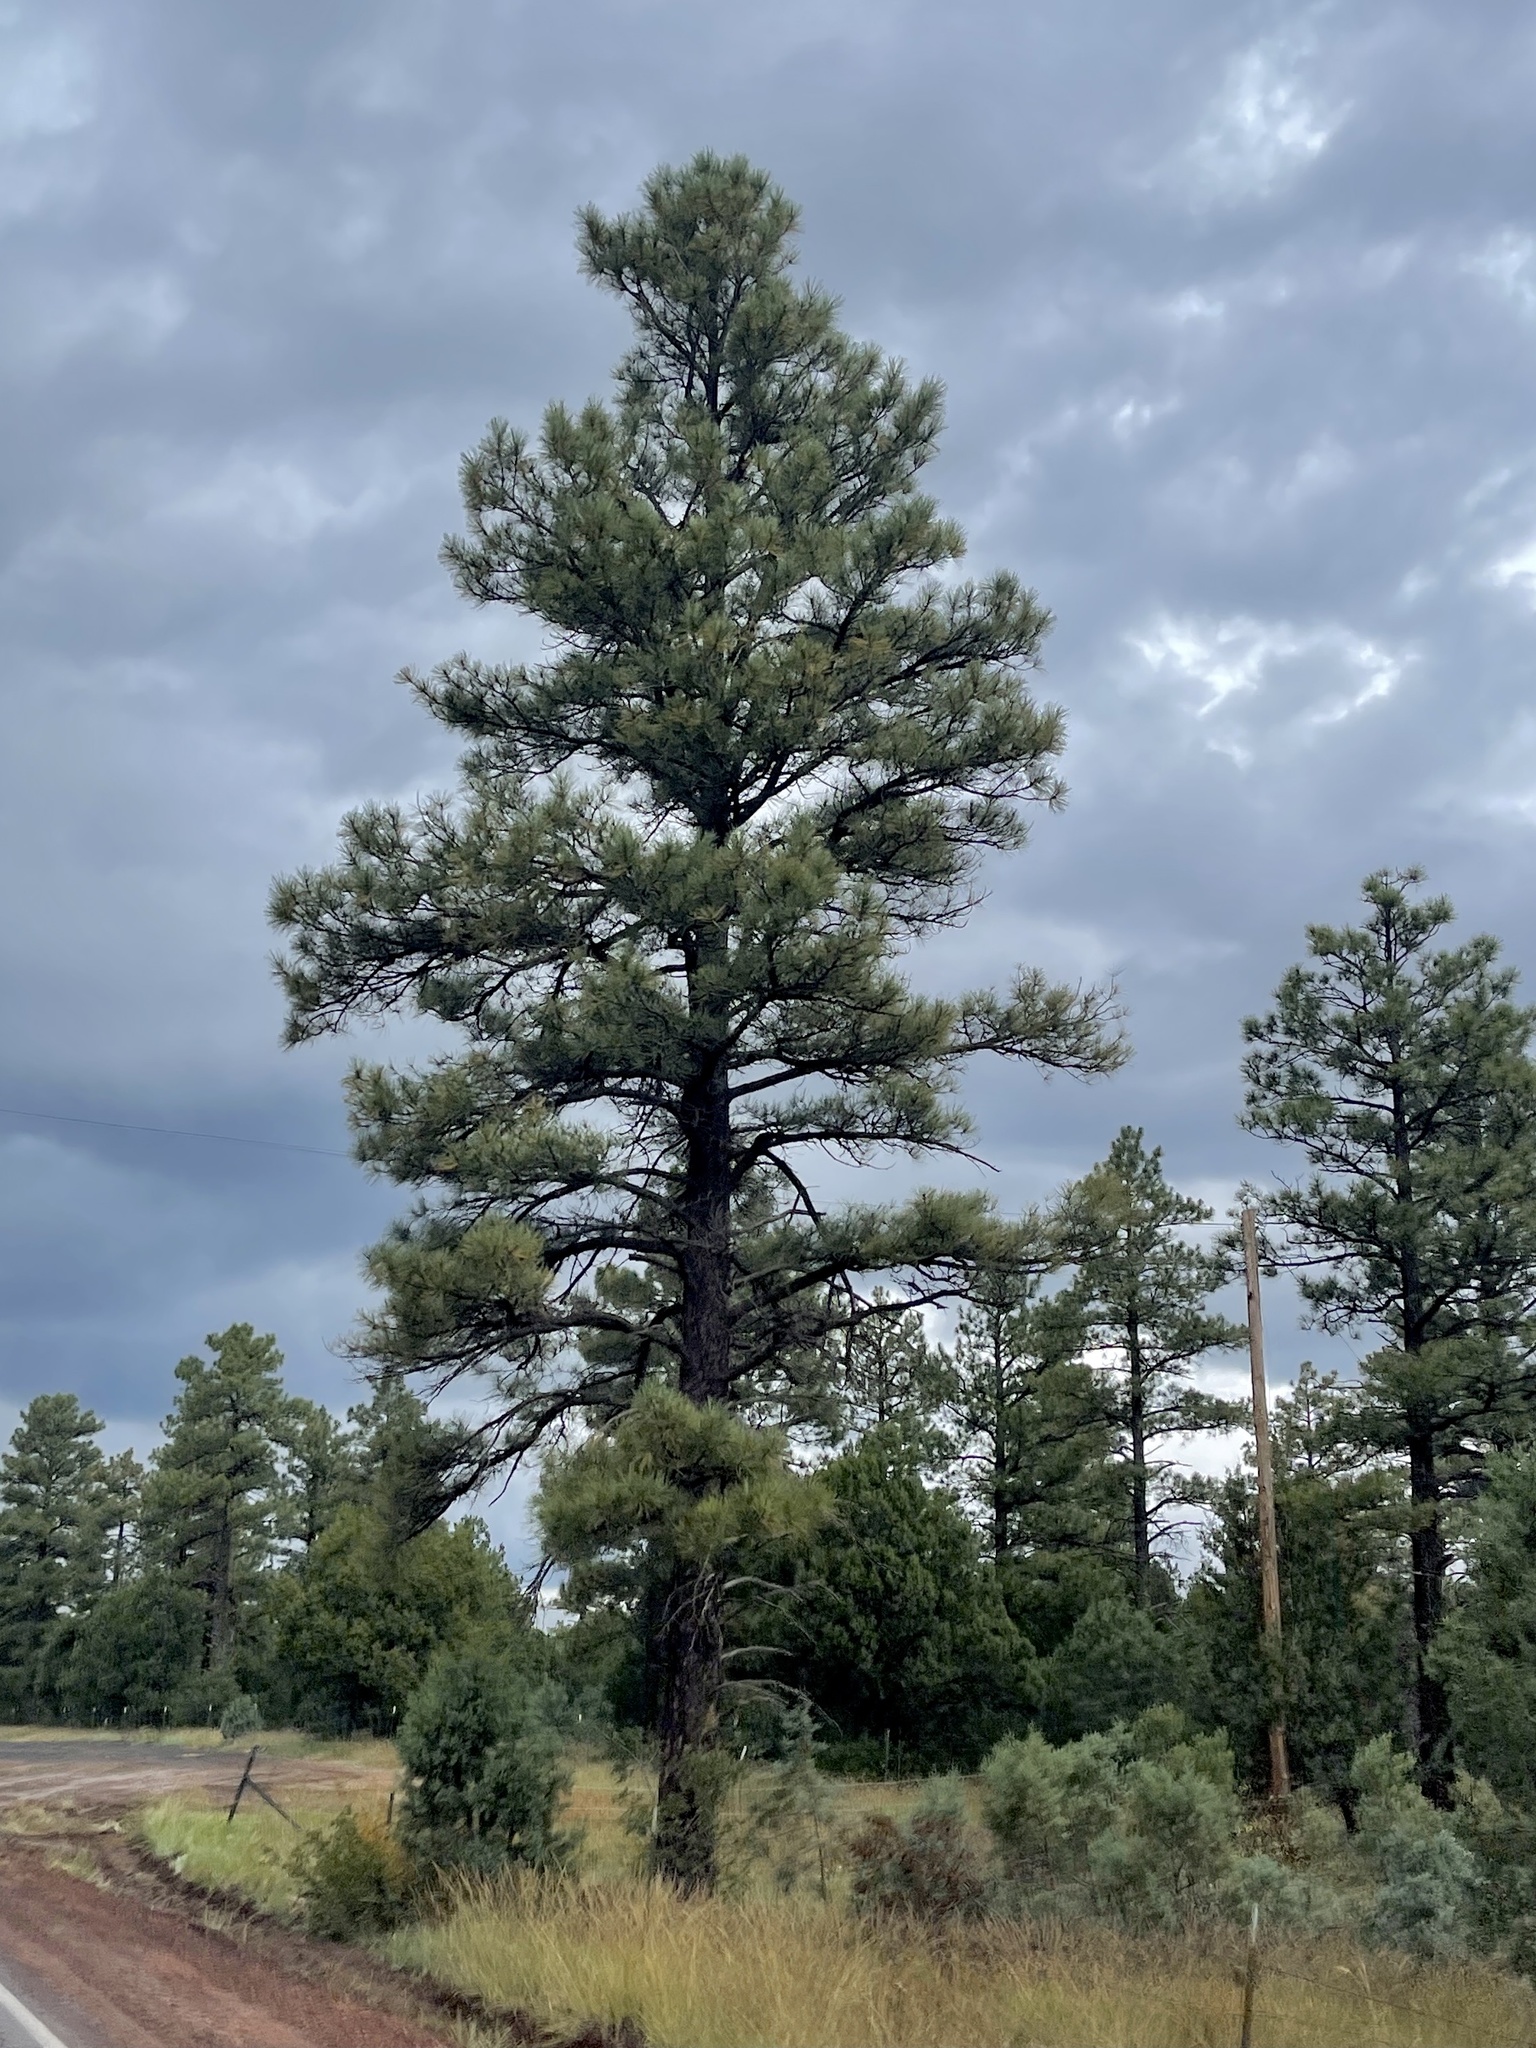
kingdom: Plantae
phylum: Tracheophyta
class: Pinopsida
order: Pinales
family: Pinaceae
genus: Pinus
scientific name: Pinus ponderosa
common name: Western yellow-pine
